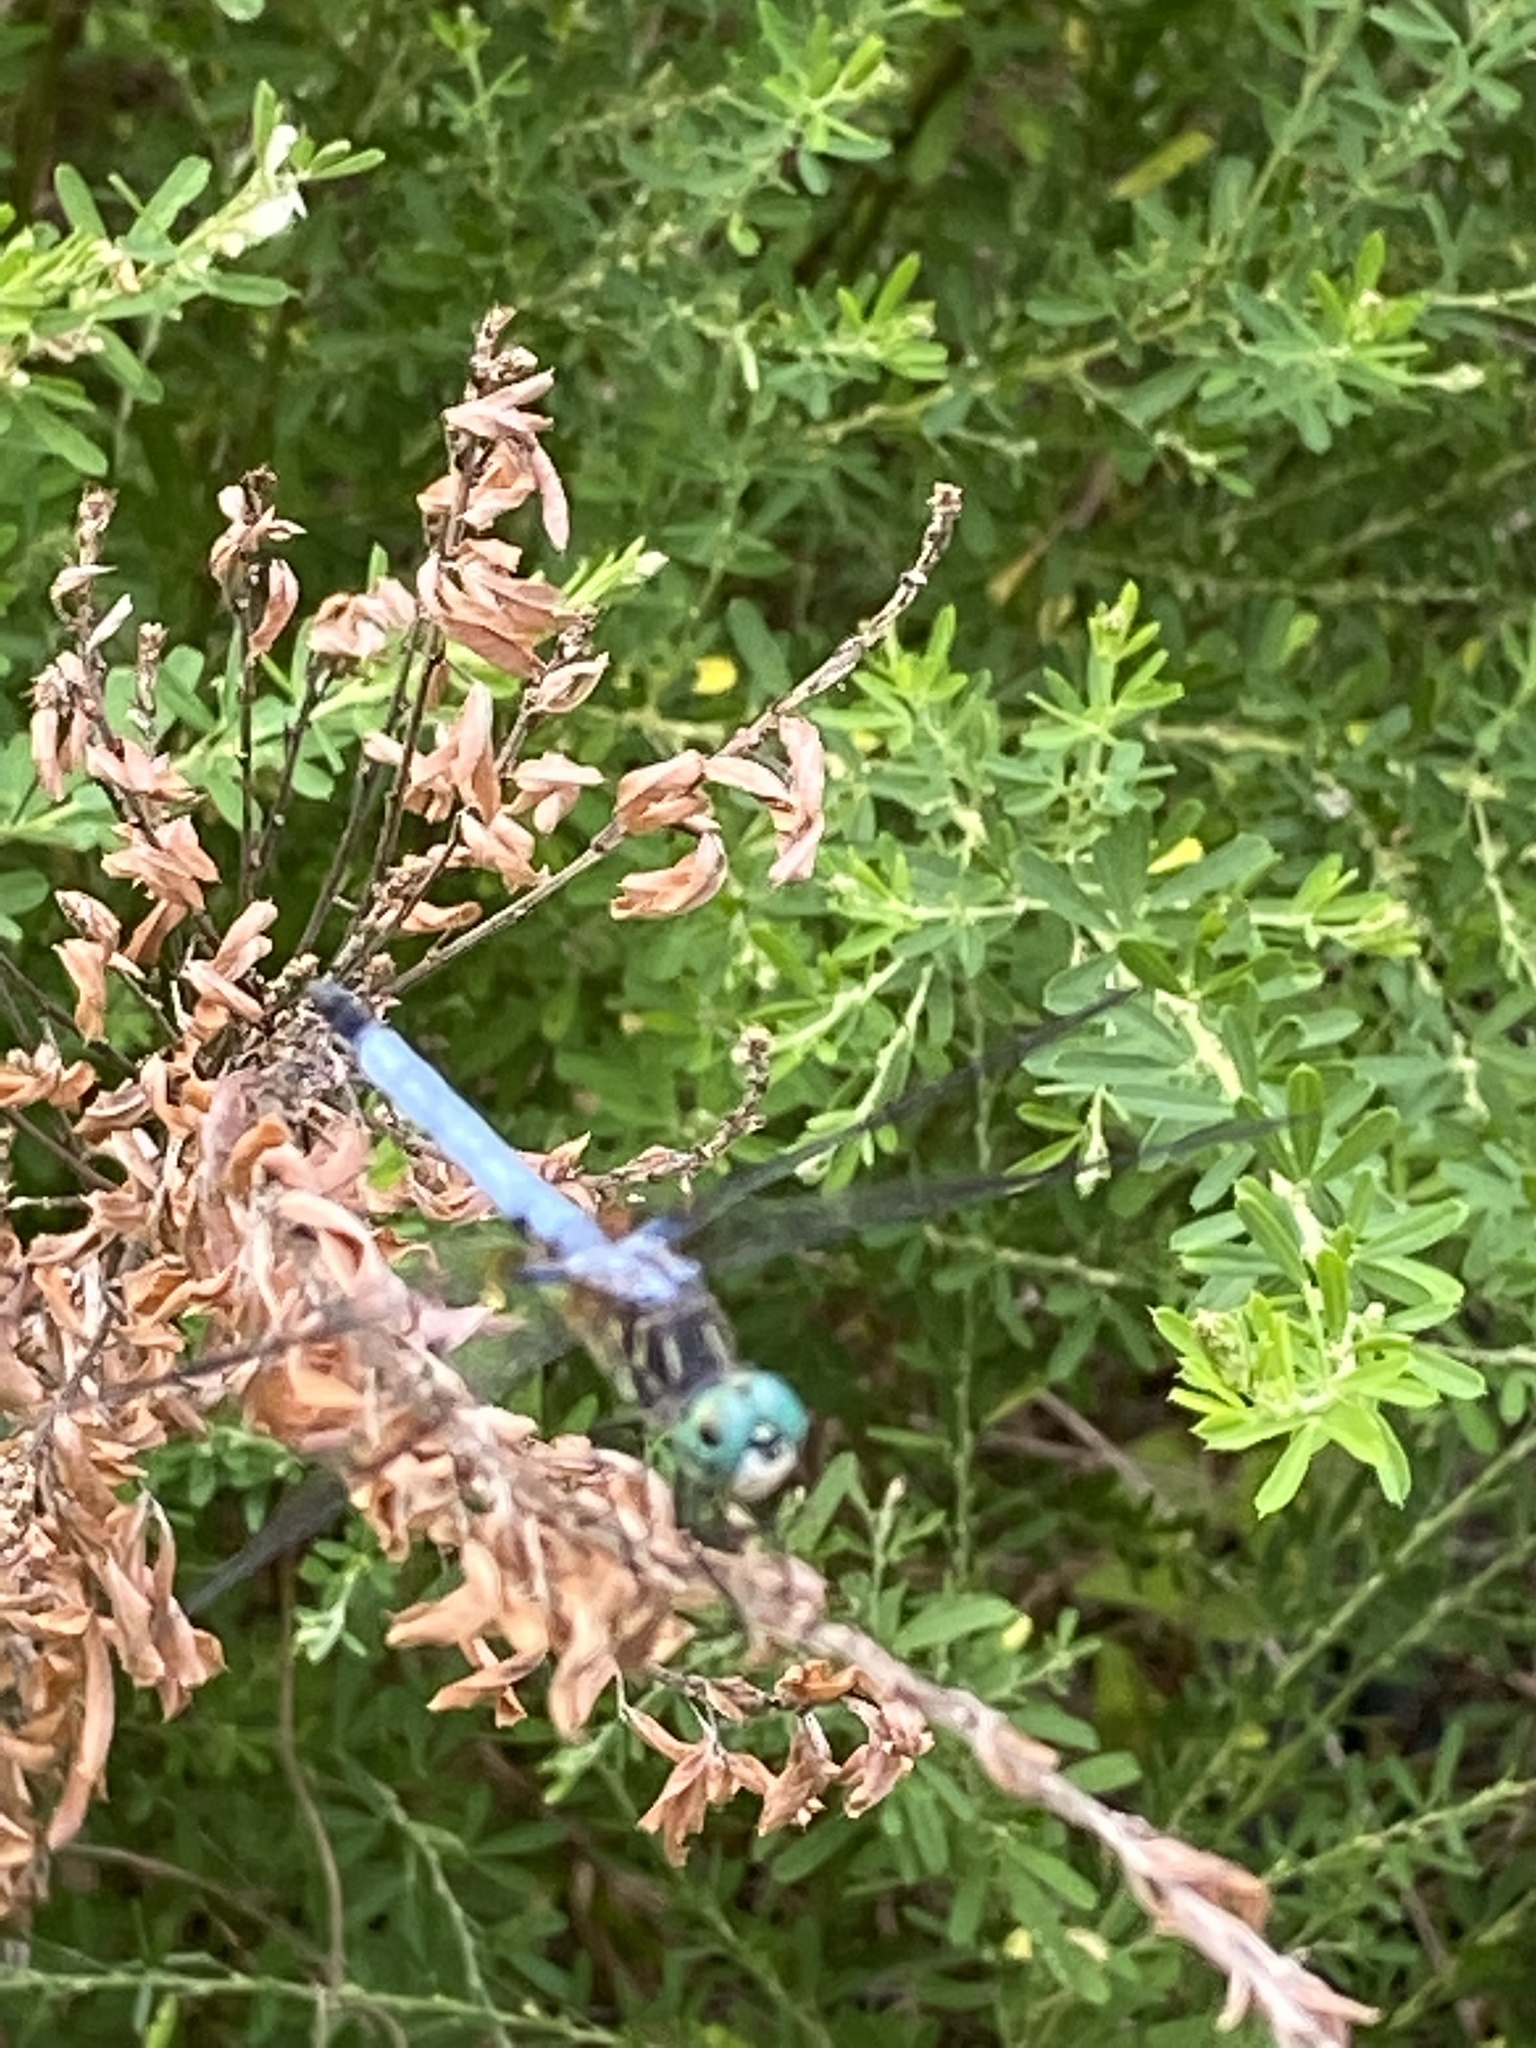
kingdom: Animalia
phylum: Arthropoda
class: Insecta
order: Odonata
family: Libellulidae
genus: Pachydiplax
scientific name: Pachydiplax longipennis
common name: Blue dasher
